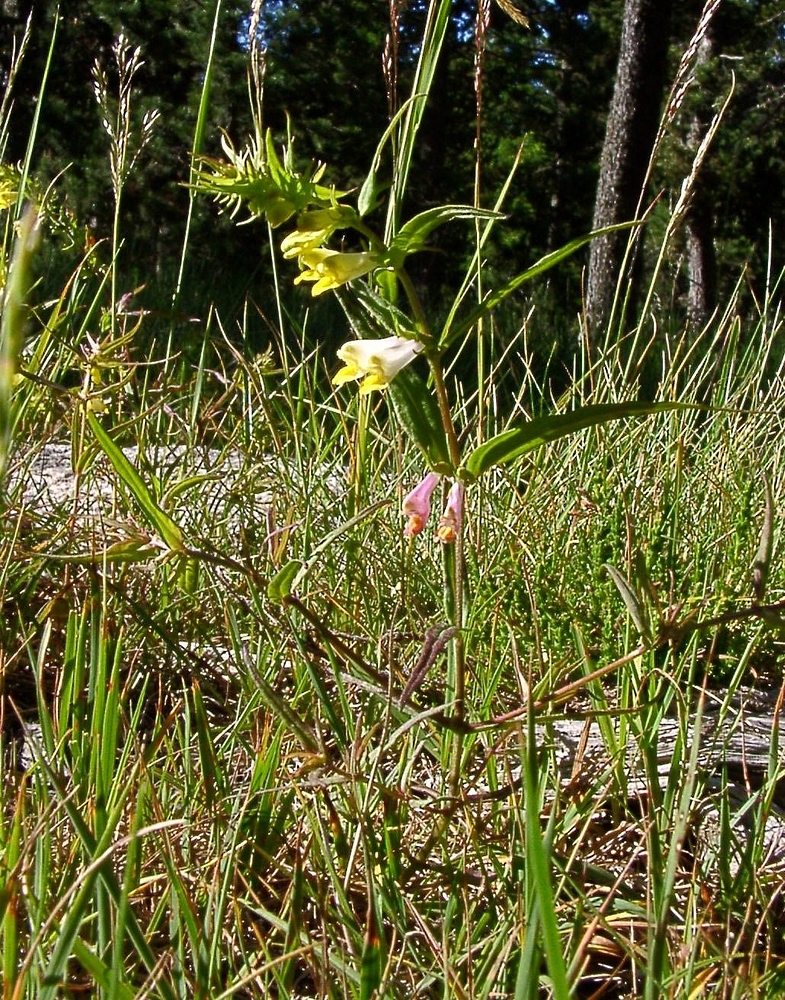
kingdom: Plantae
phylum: Tracheophyta
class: Magnoliopsida
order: Lamiales
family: Orobanchaceae
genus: Melampyrum
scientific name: Melampyrum pratense
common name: Common cow-wheat
